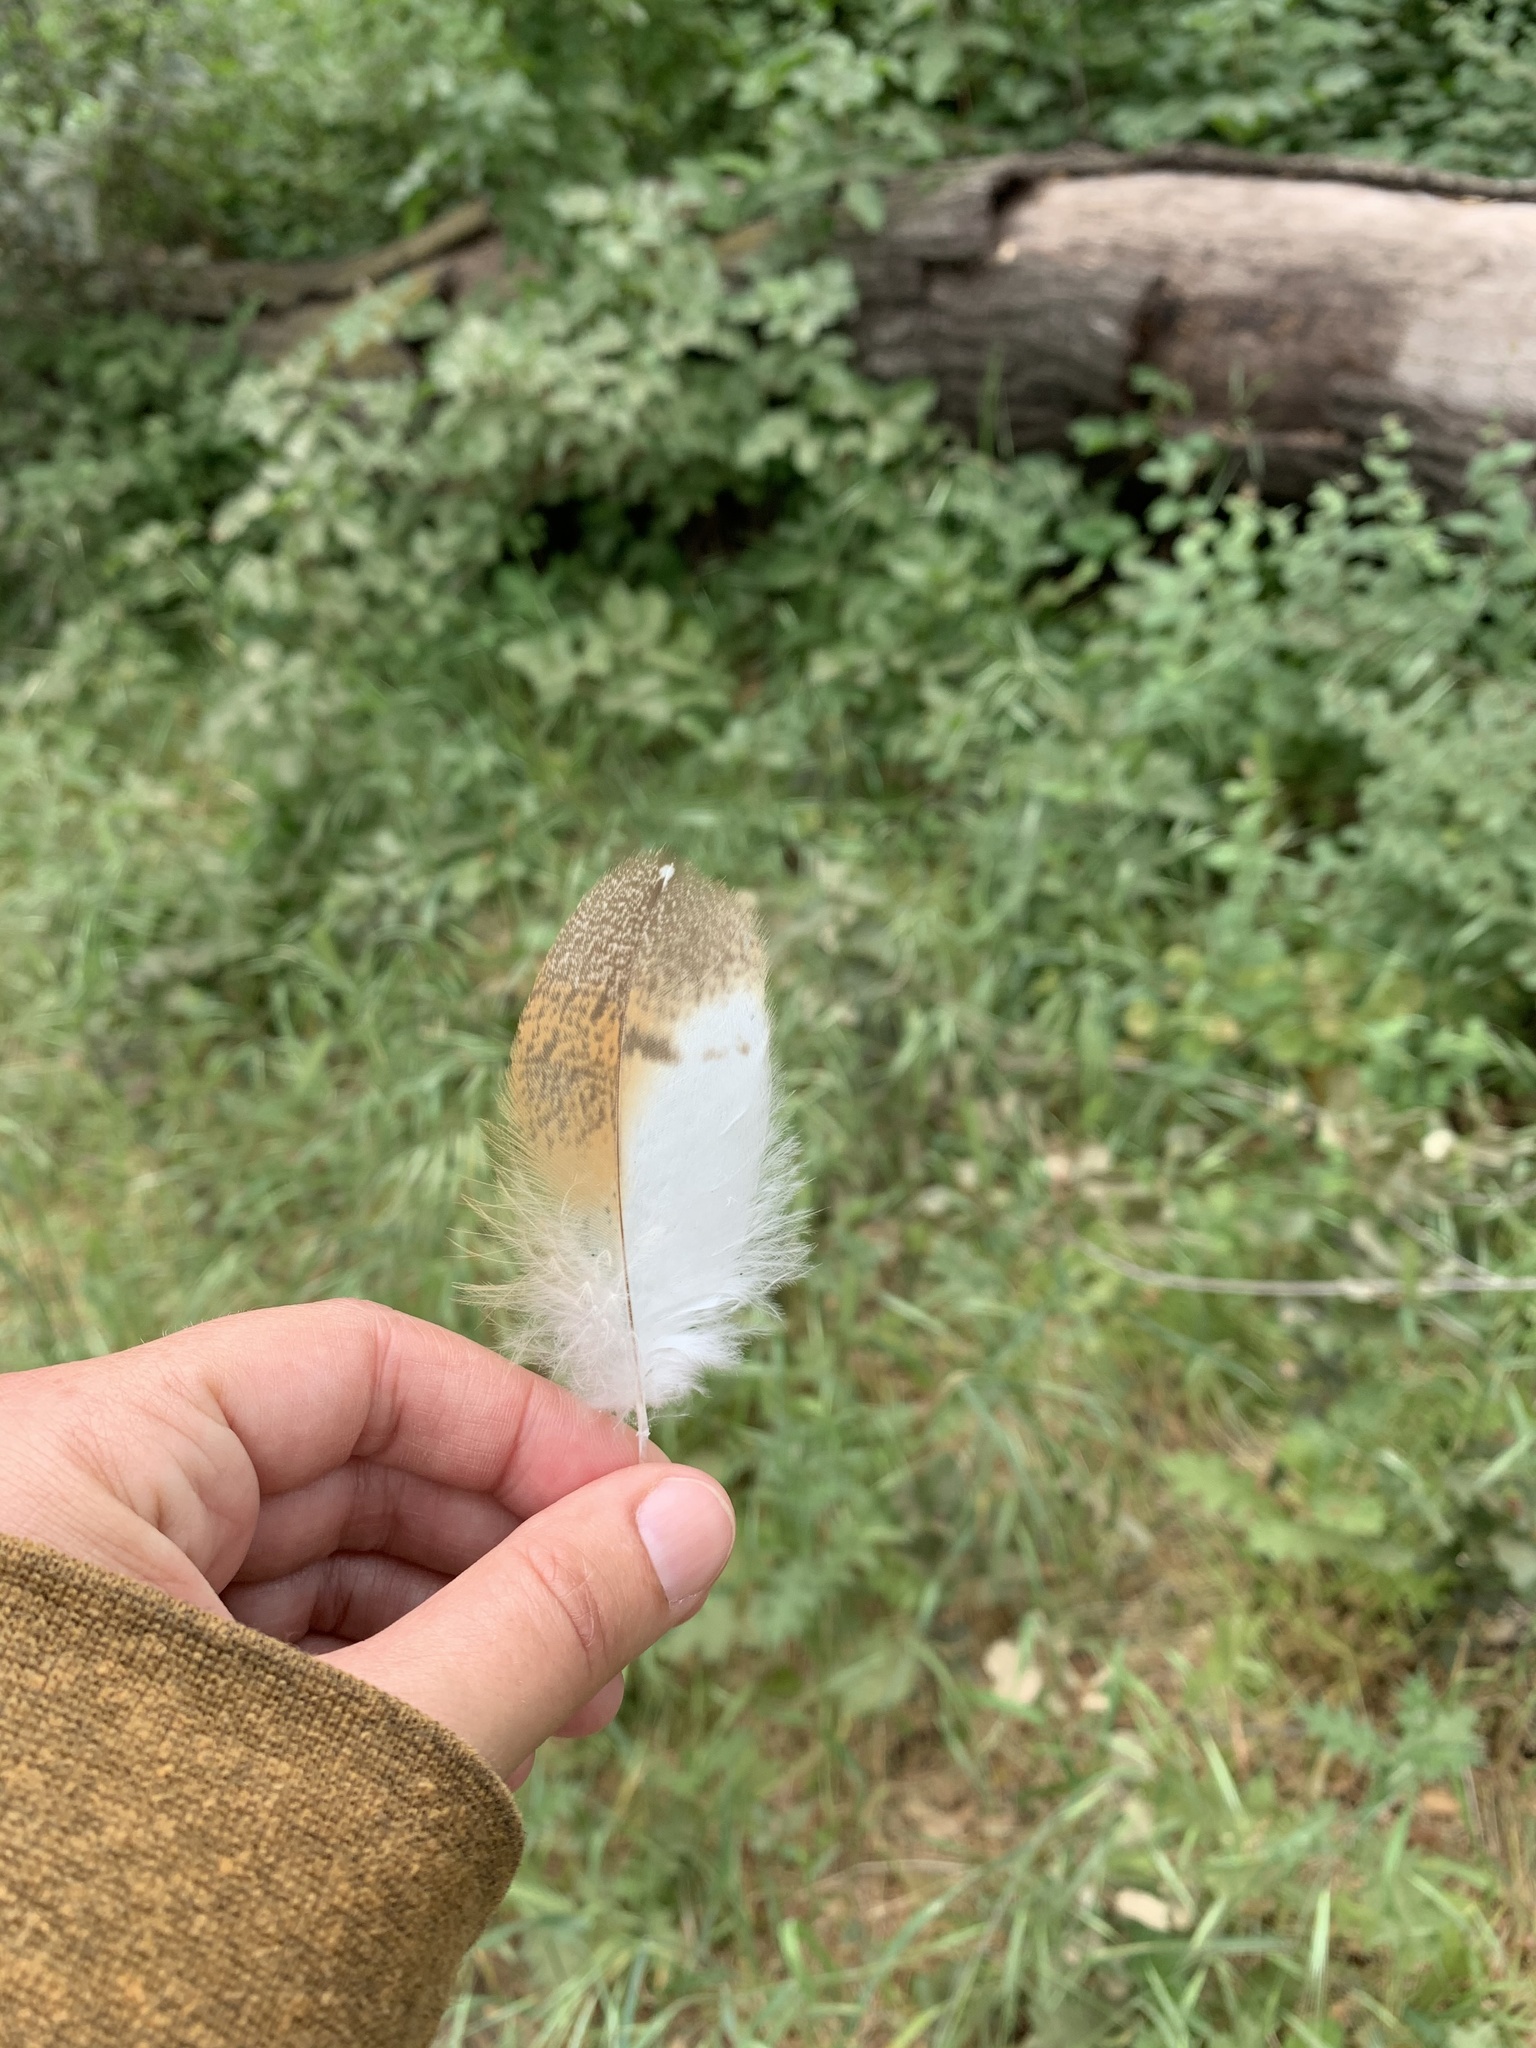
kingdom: Animalia
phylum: Chordata
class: Aves
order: Strigiformes
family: Tytonidae
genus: Tyto
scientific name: Tyto alba
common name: Barn owl
